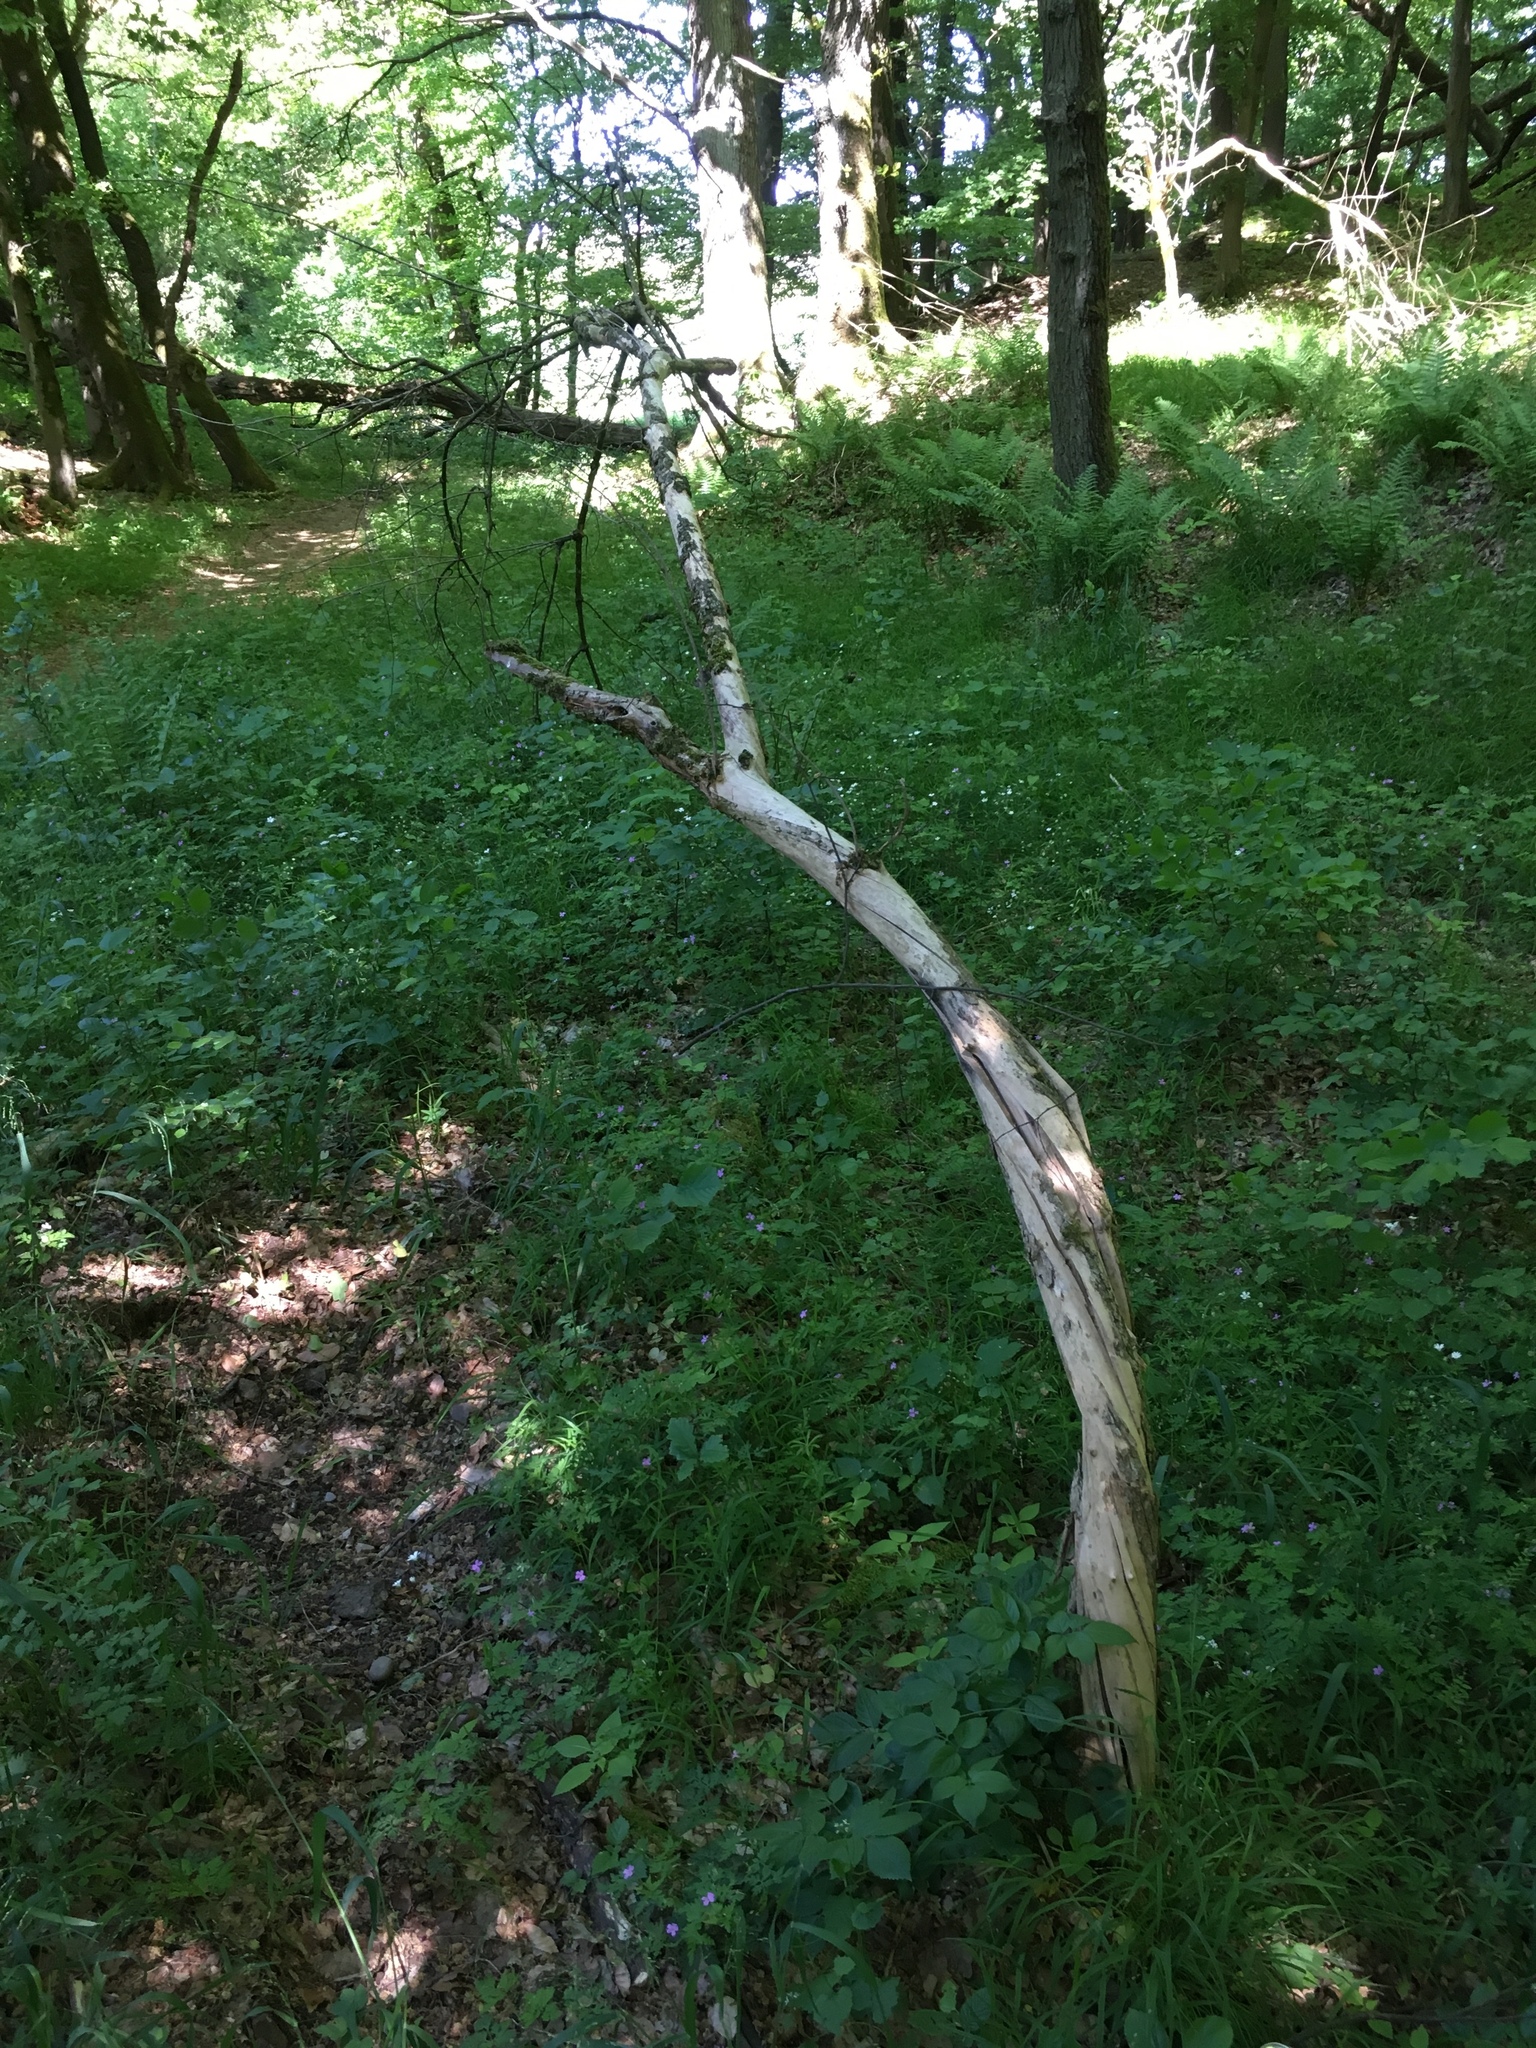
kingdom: Plantae
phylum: Tracheophyta
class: Magnoliopsida
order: Dipsacales
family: Viburnaceae
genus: Sambucus
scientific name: Sambucus nigra
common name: Elder
